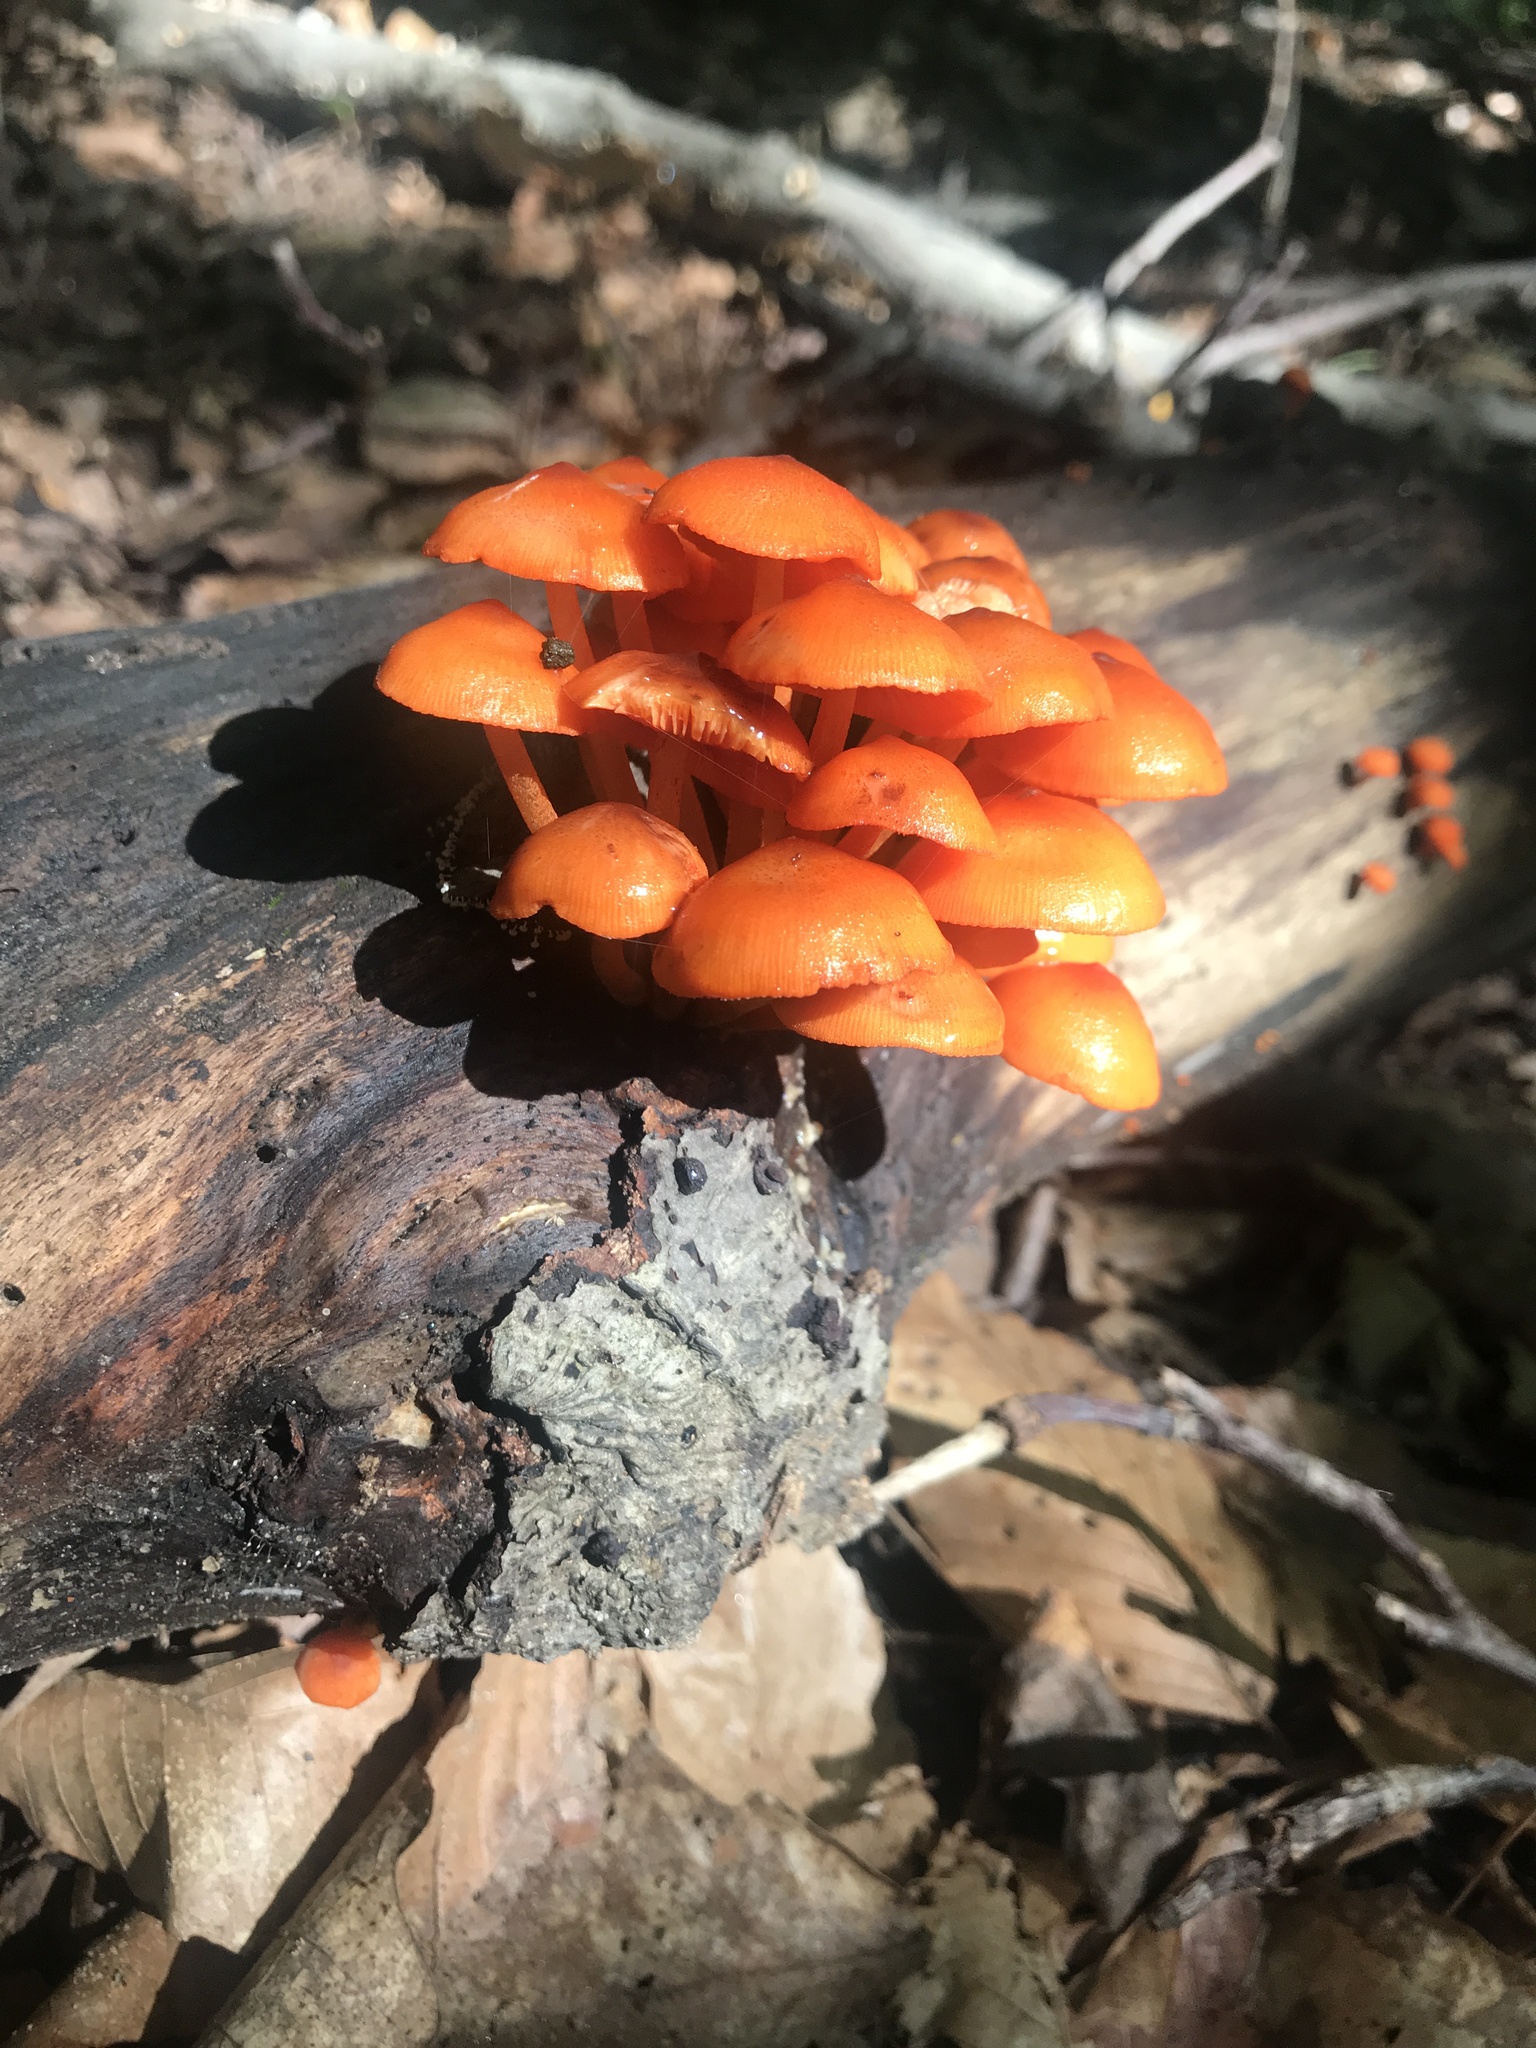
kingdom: Fungi
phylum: Basidiomycota
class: Agaricomycetes
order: Agaricales
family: Mycenaceae
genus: Mycena
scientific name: Mycena leaiana
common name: Orange mycena
